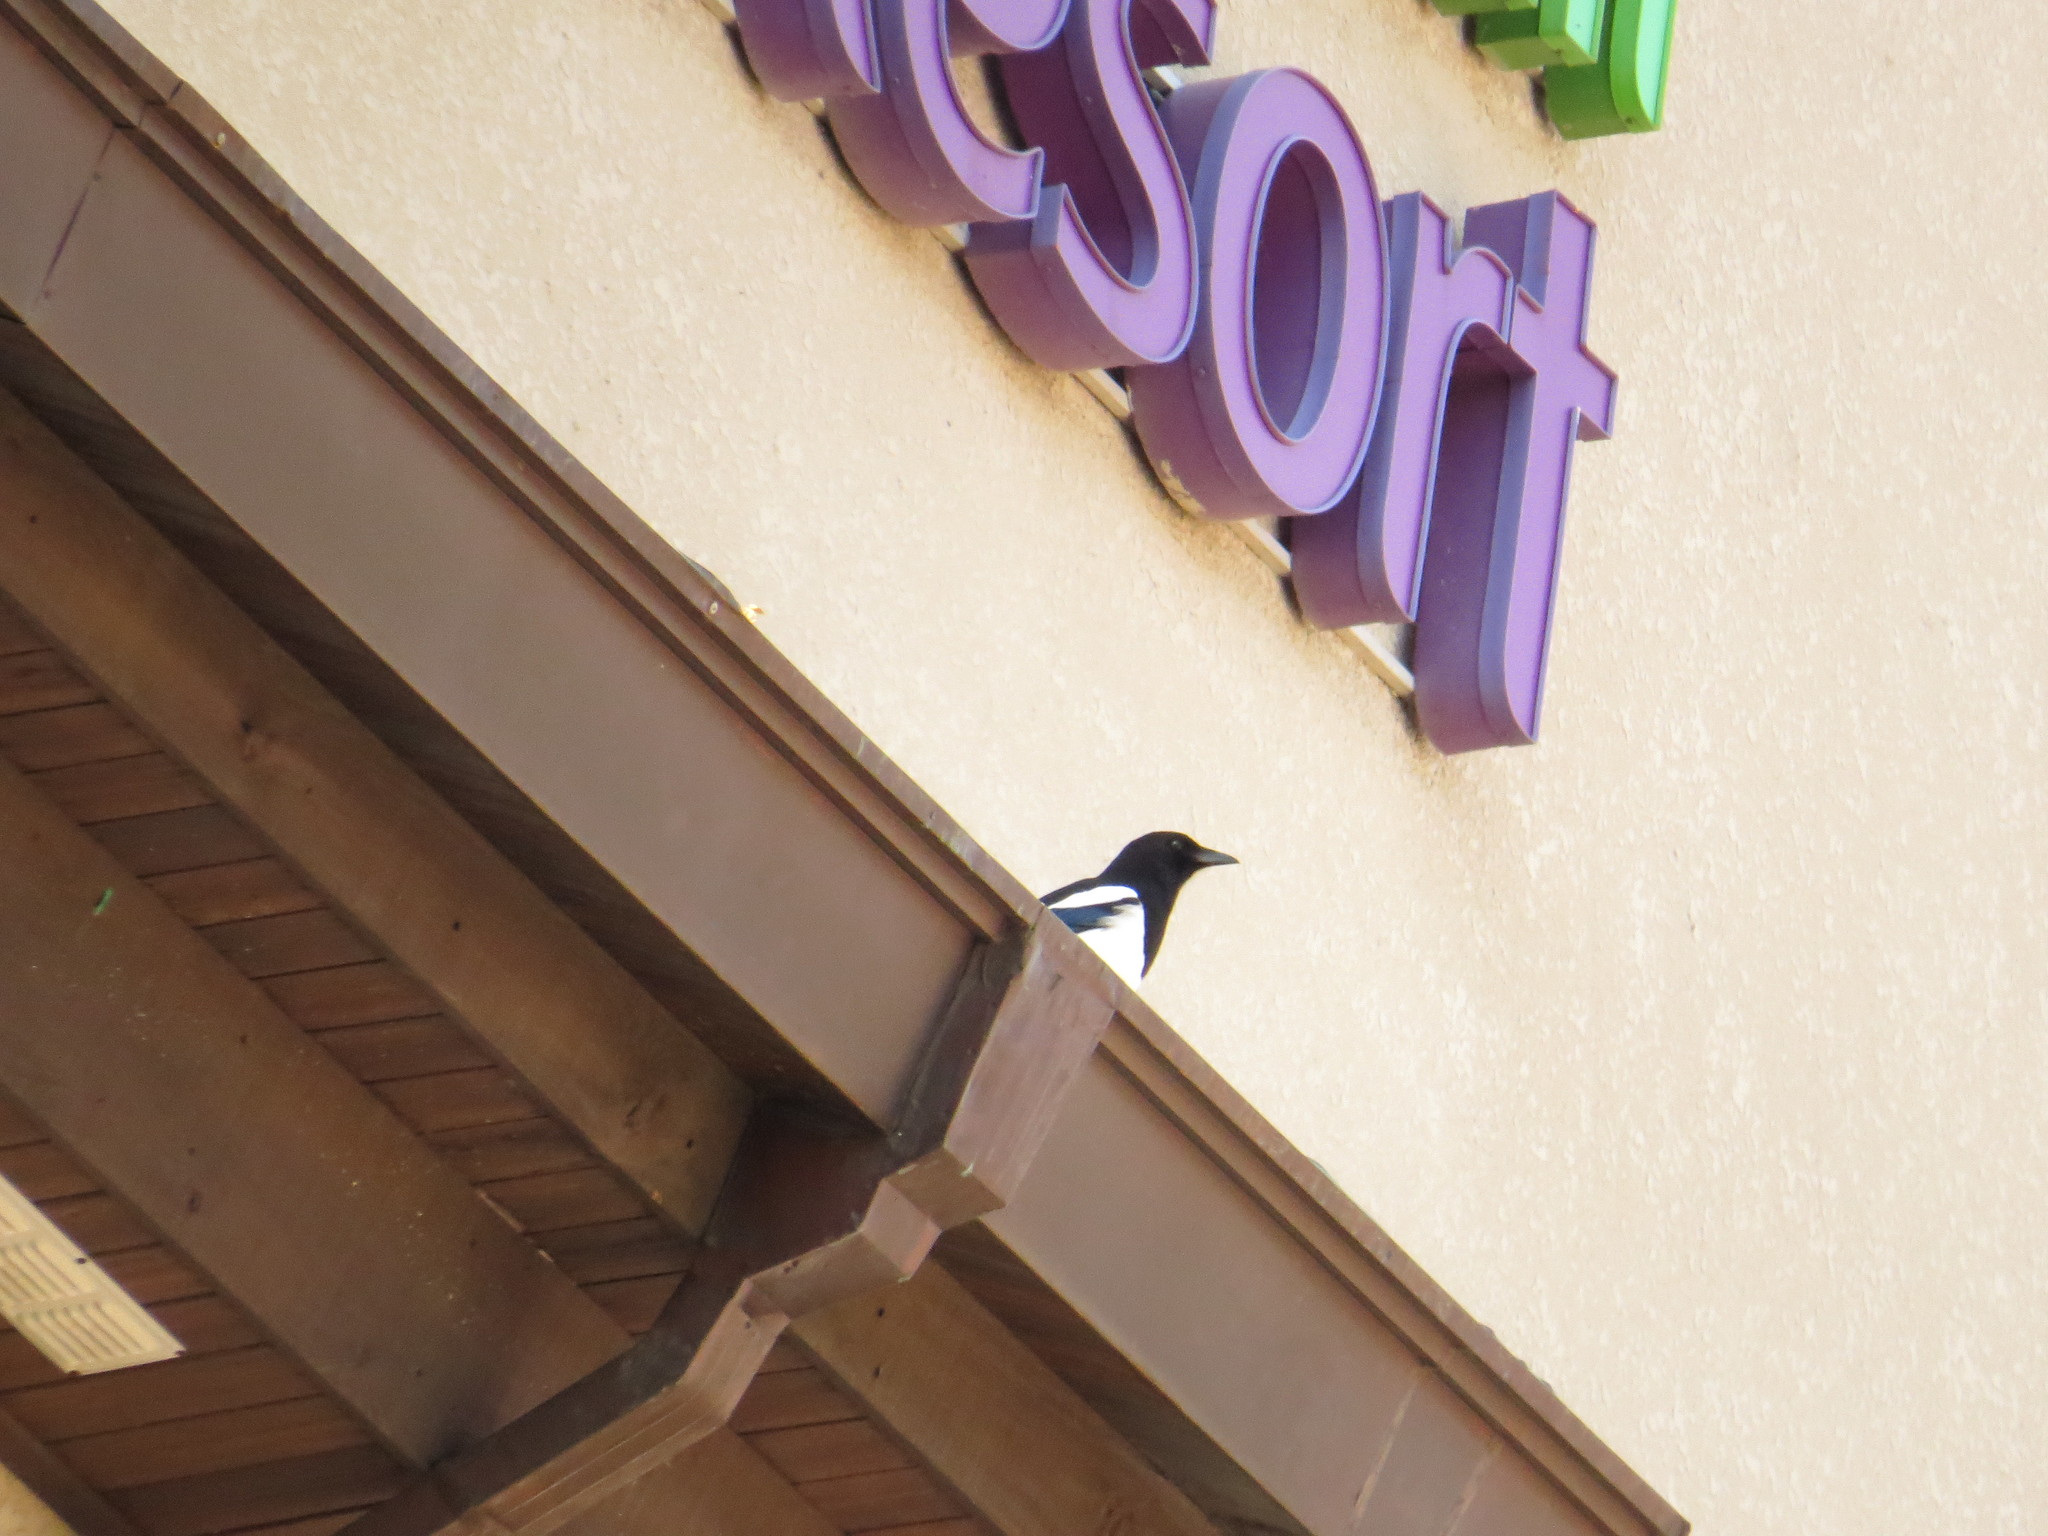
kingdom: Animalia
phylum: Chordata
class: Aves
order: Passeriformes
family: Corvidae
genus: Pica
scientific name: Pica serica
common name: Oriental magpie
